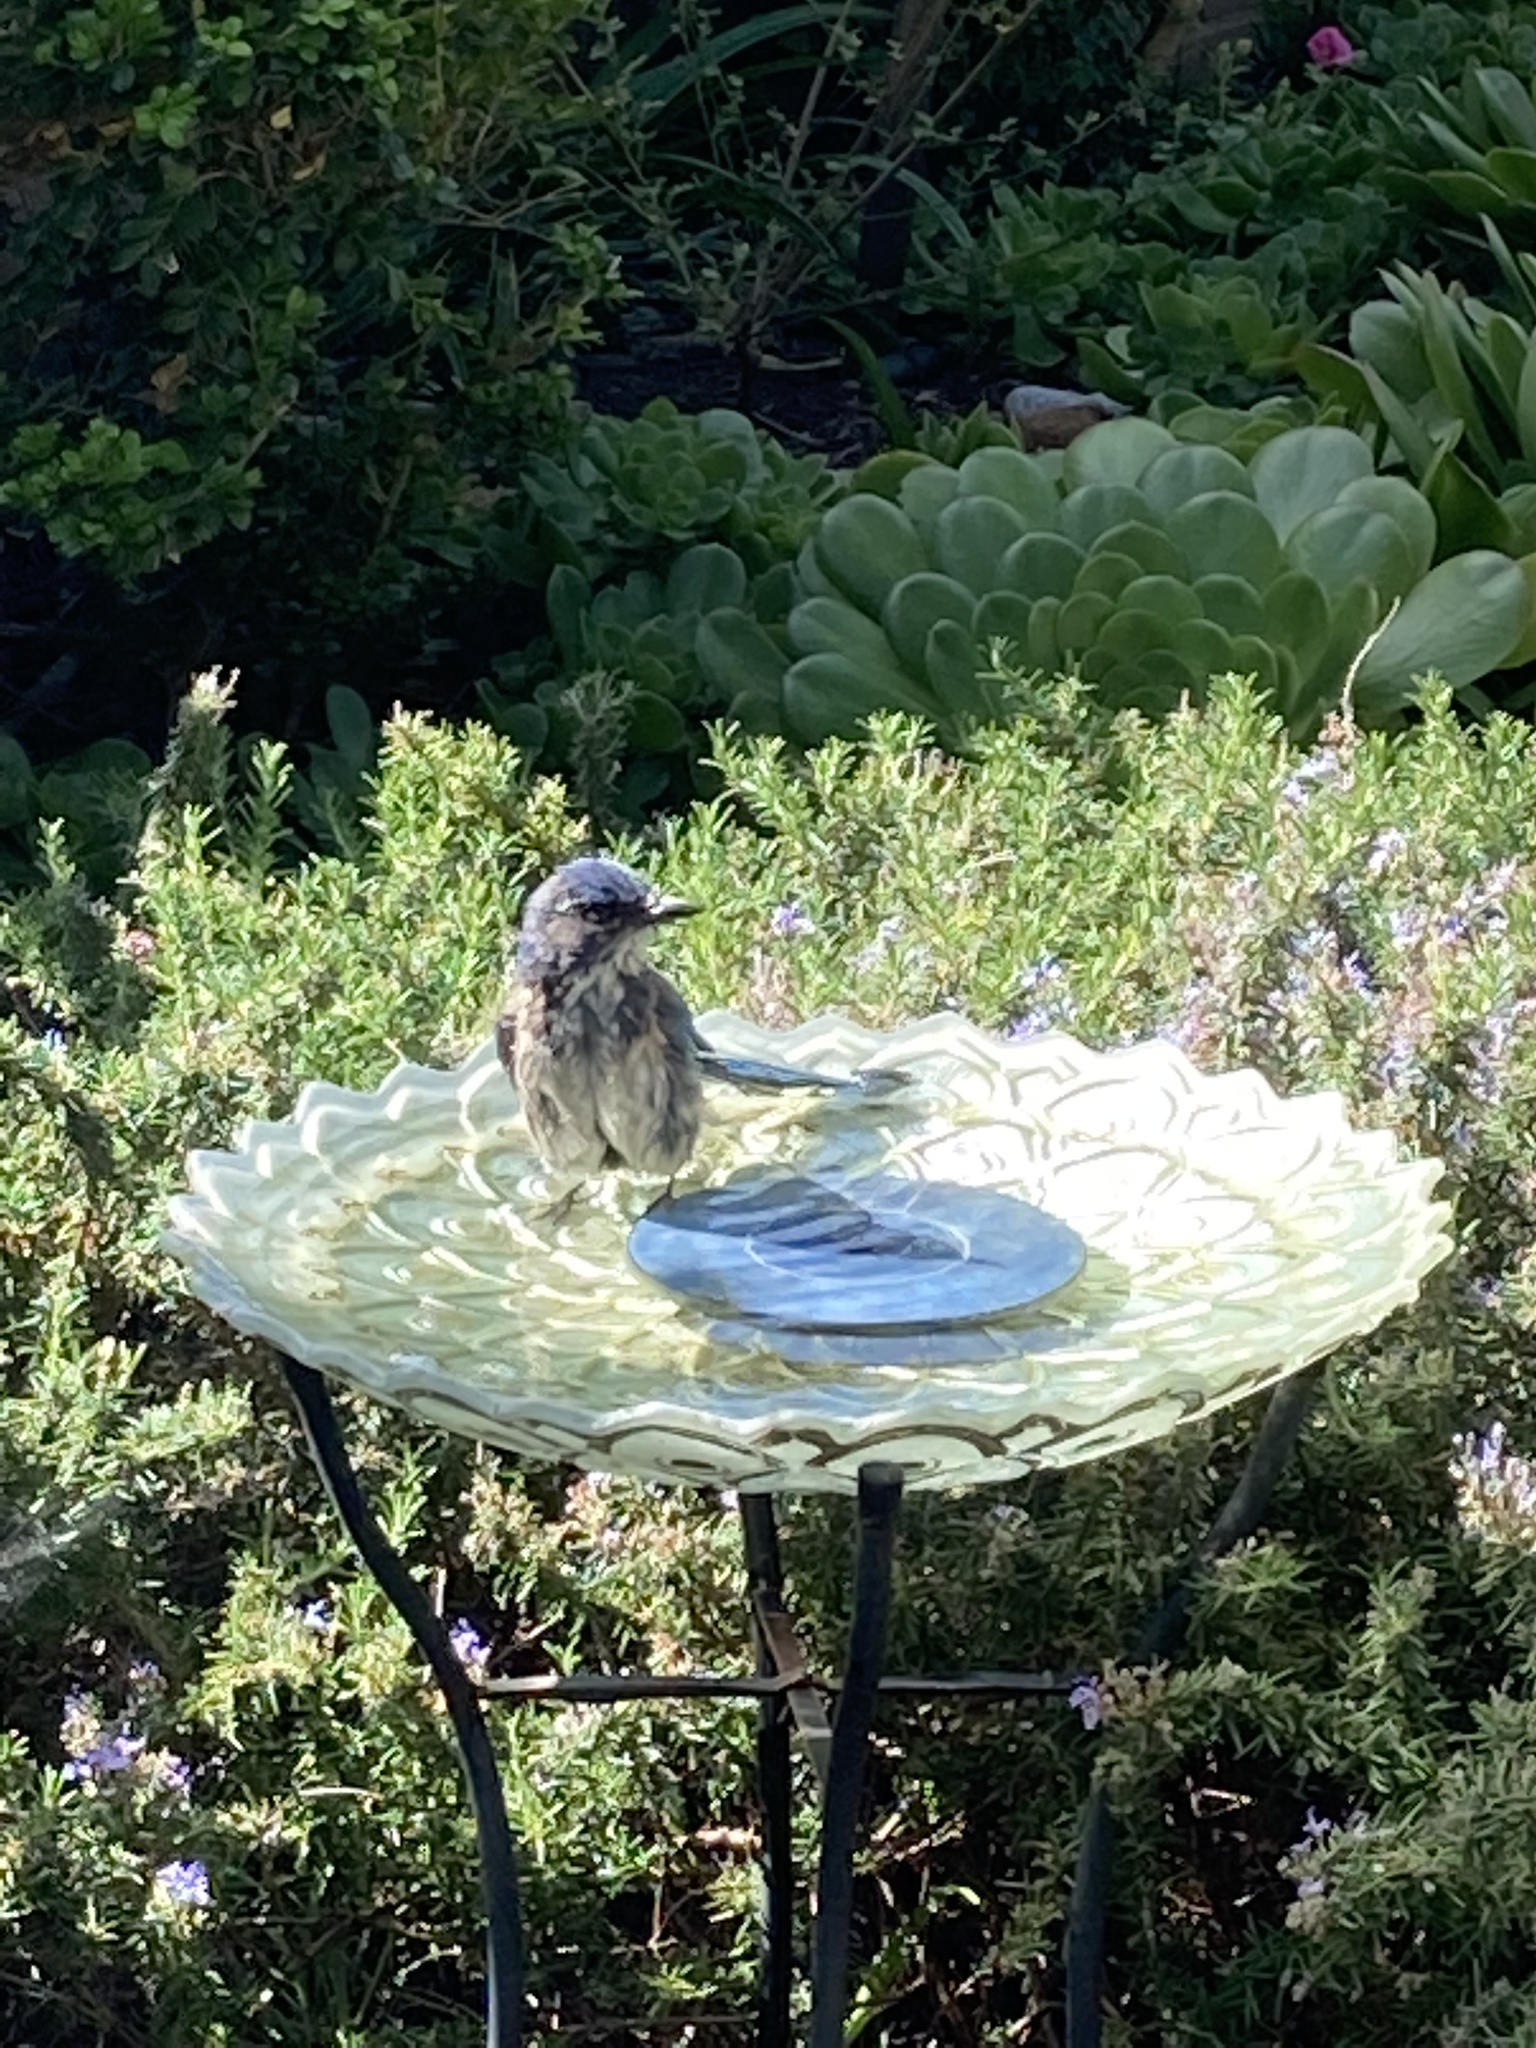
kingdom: Animalia
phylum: Chordata
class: Aves
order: Passeriformes
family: Corvidae
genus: Aphelocoma
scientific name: Aphelocoma californica
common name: California scrub-jay
